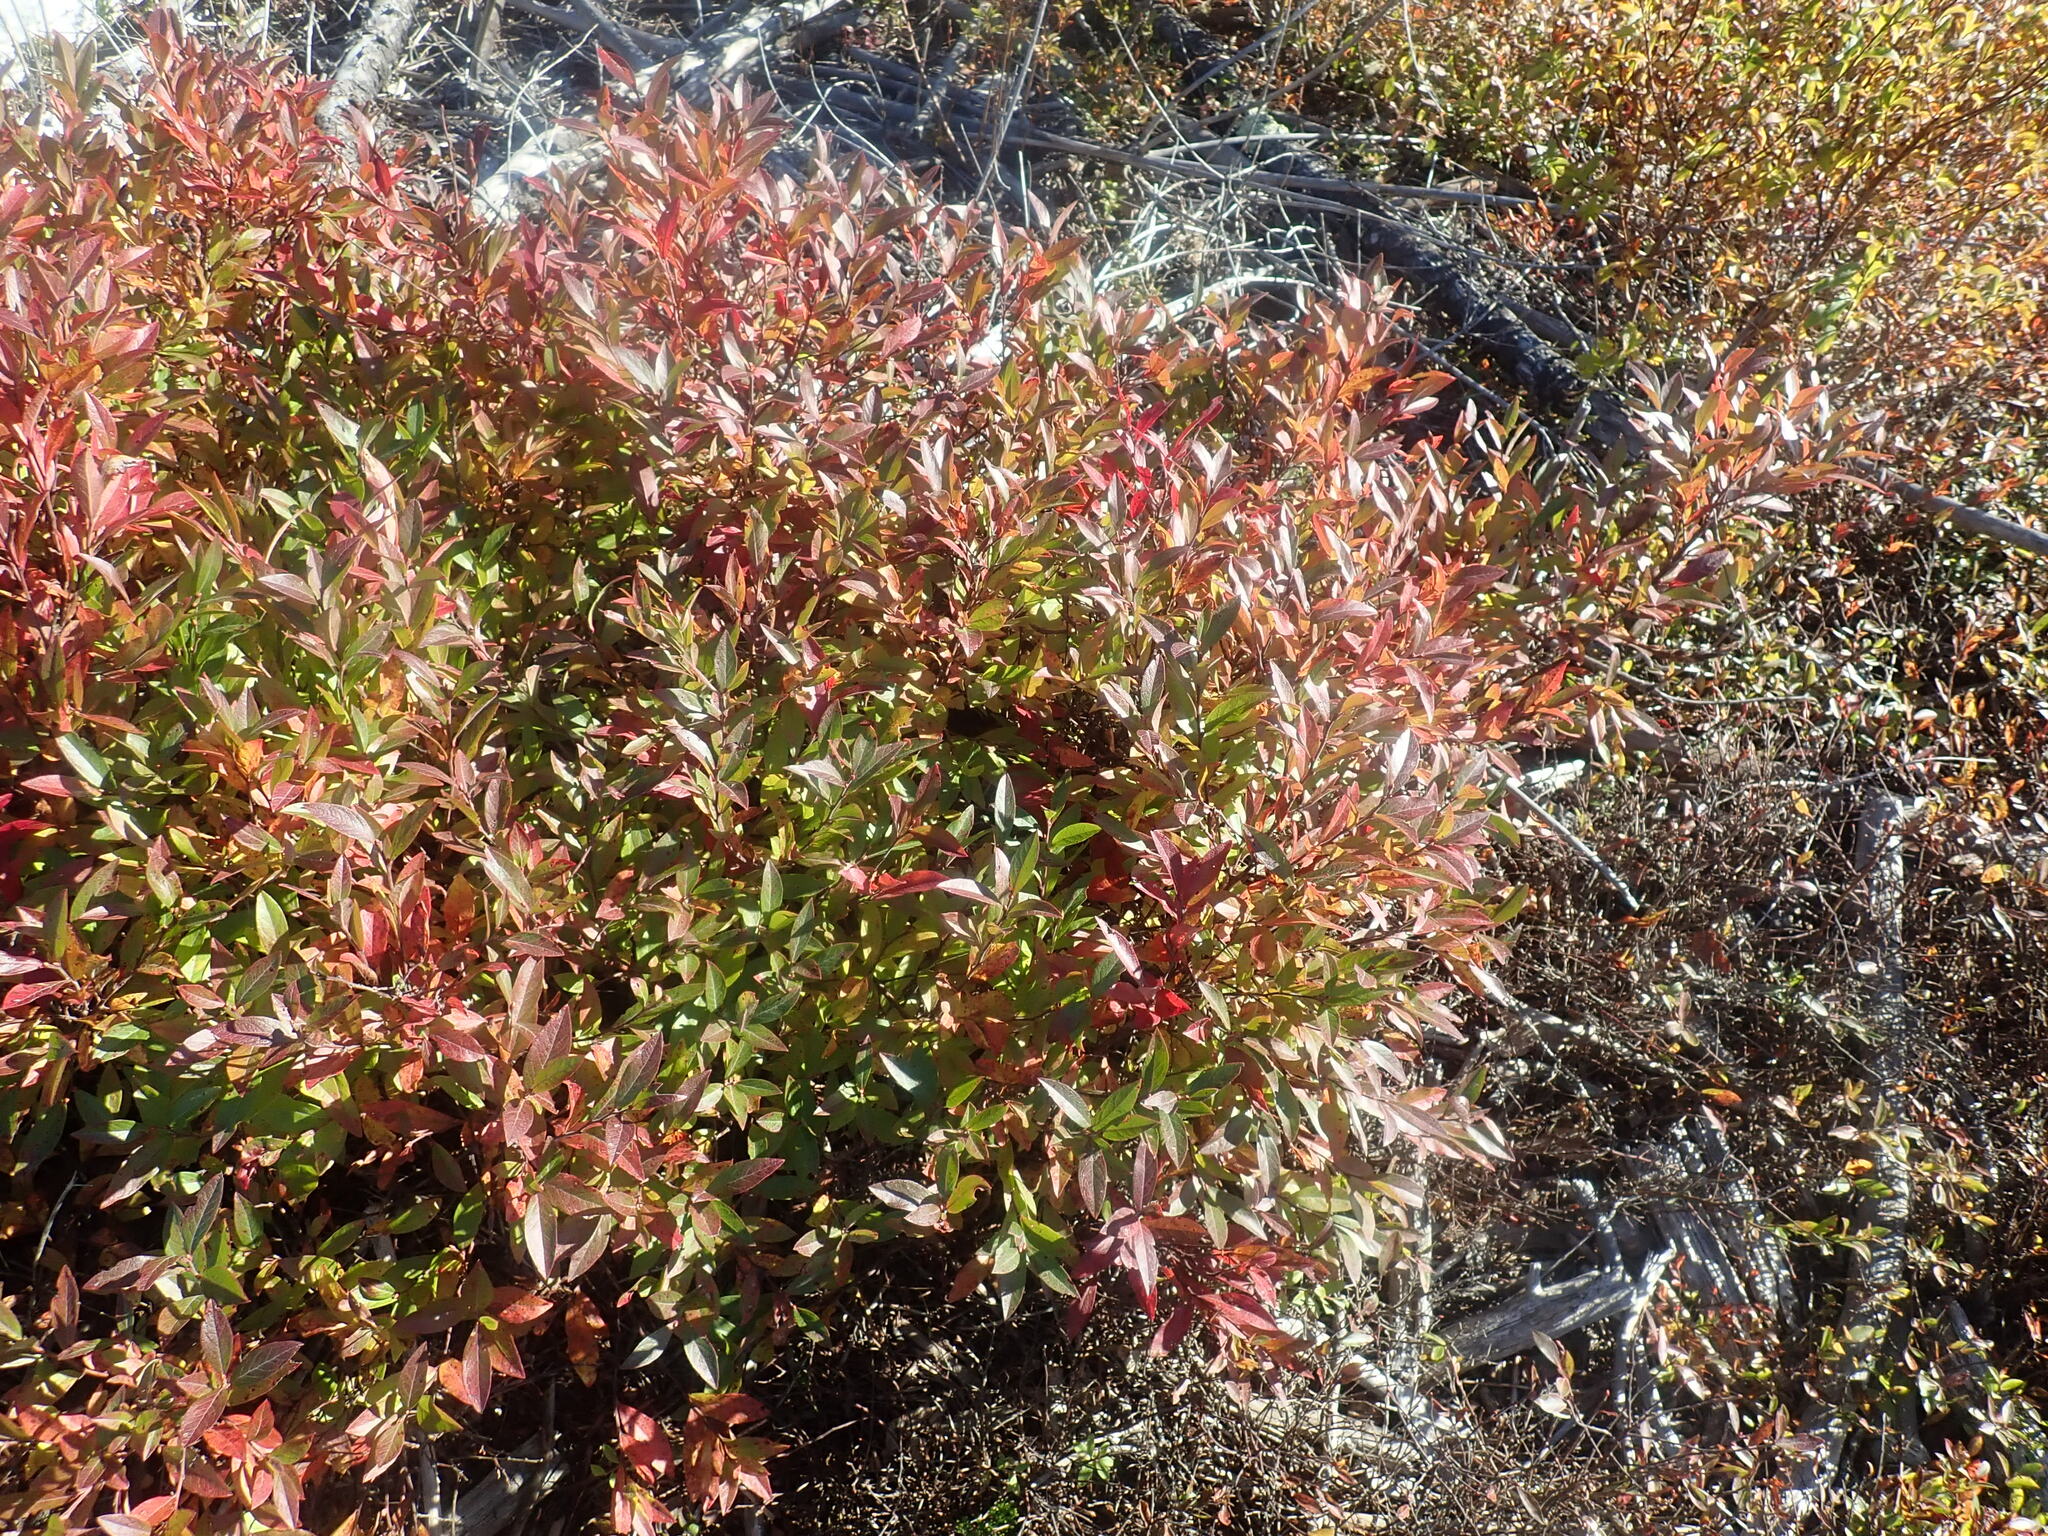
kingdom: Plantae
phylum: Tracheophyta
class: Magnoliopsida
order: Ericales
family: Ericaceae
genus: Vaccinium
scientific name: Vaccinium myrtilloides
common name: Canada blueberry
